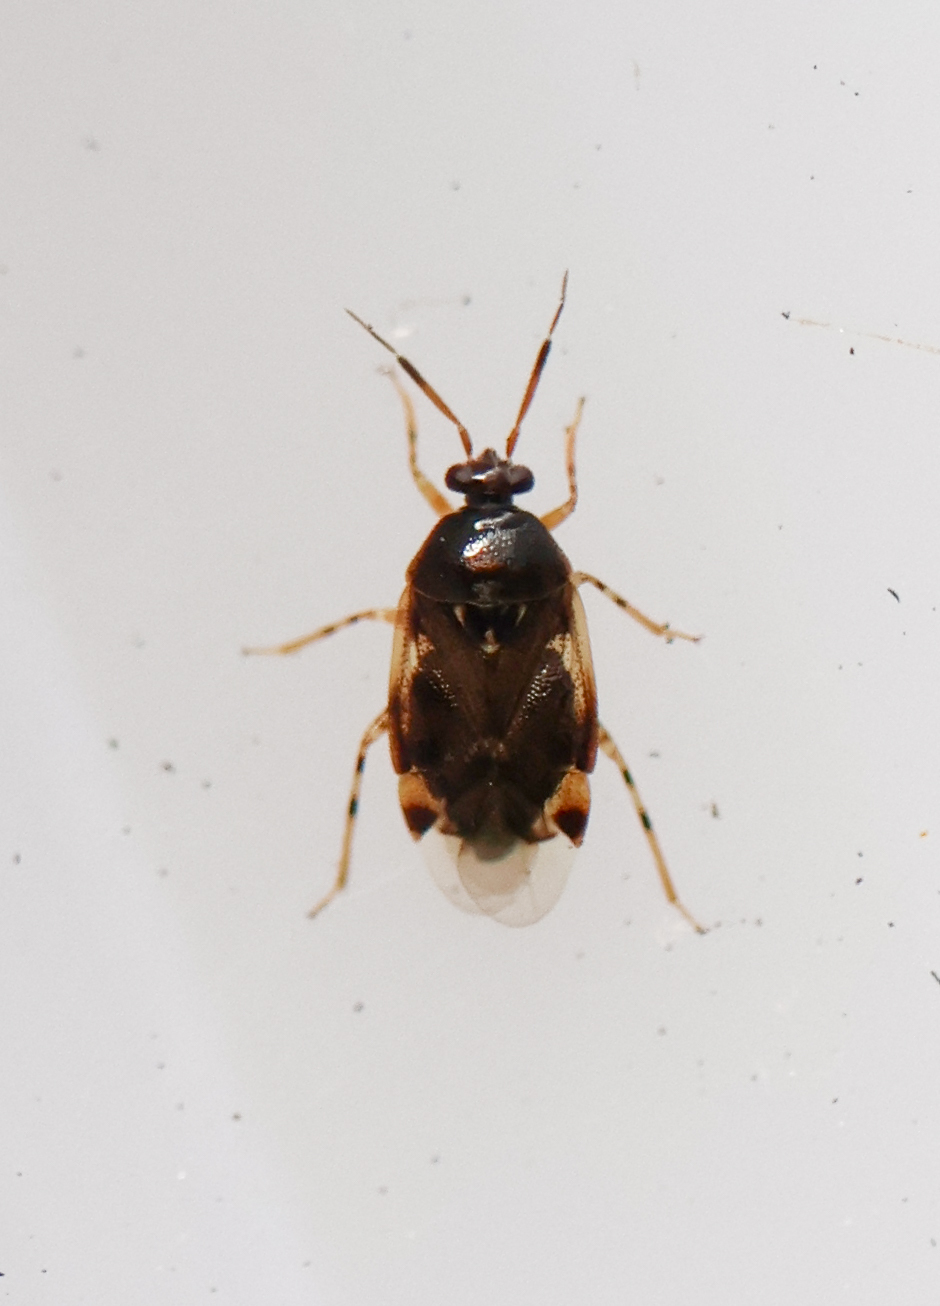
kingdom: Animalia
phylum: Arthropoda
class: Insecta
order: Hemiptera
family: Miridae
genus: Deraeocoris
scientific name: Deraeocoris lutescens
